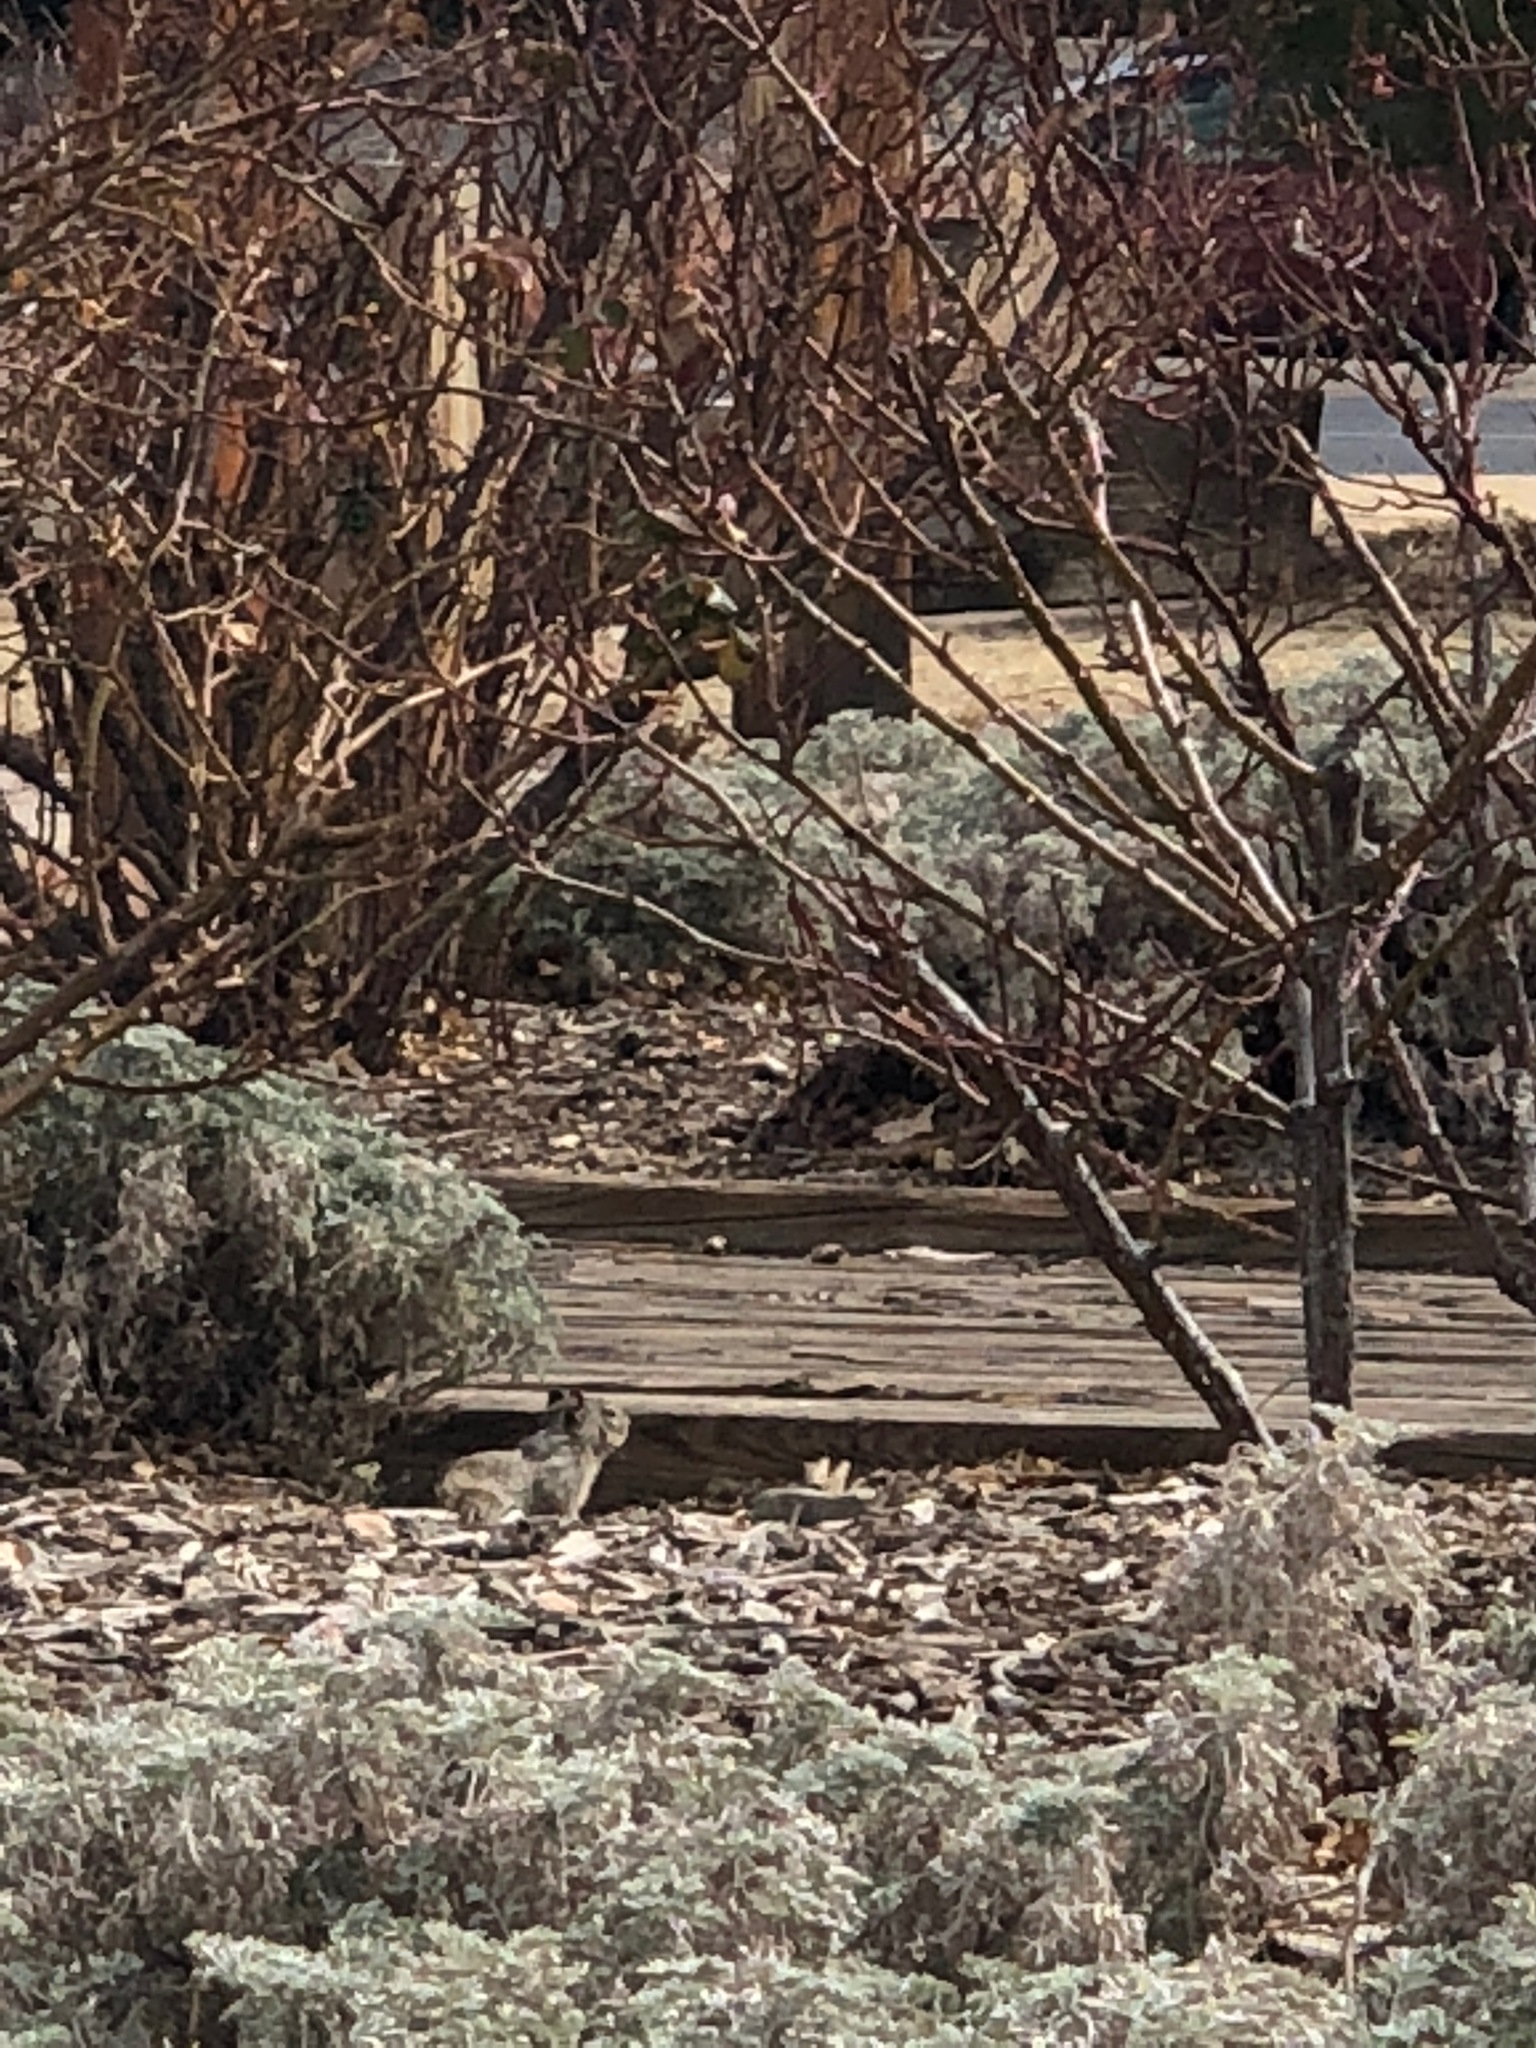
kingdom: Animalia
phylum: Chordata
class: Mammalia
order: Rodentia
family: Sciuridae
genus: Otospermophilus
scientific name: Otospermophilus variegatus
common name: Rock squirrel
